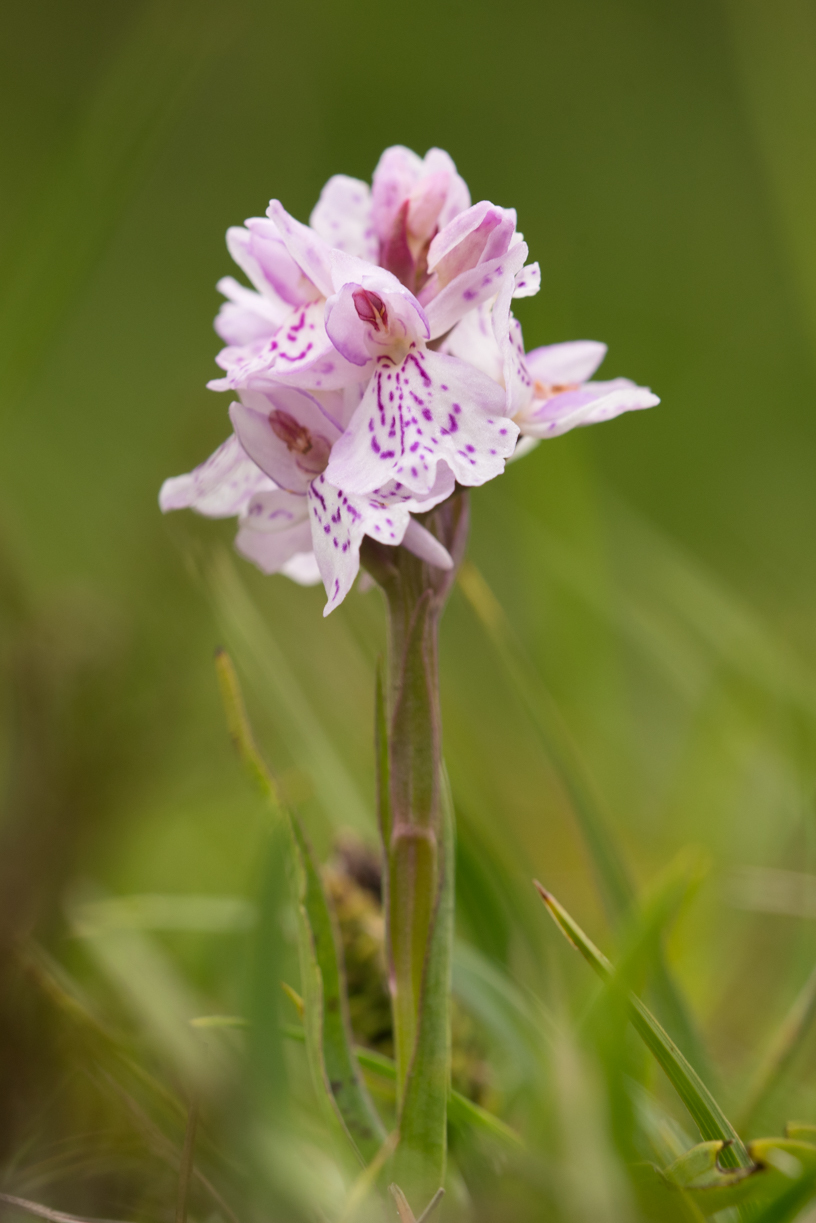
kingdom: Plantae
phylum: Tracheophyta
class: Liliopsida
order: Asparagales
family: Orchidaceae
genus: Dactylorhiza
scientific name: Dactylorhiza maculata
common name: Heath spotted-orchid
